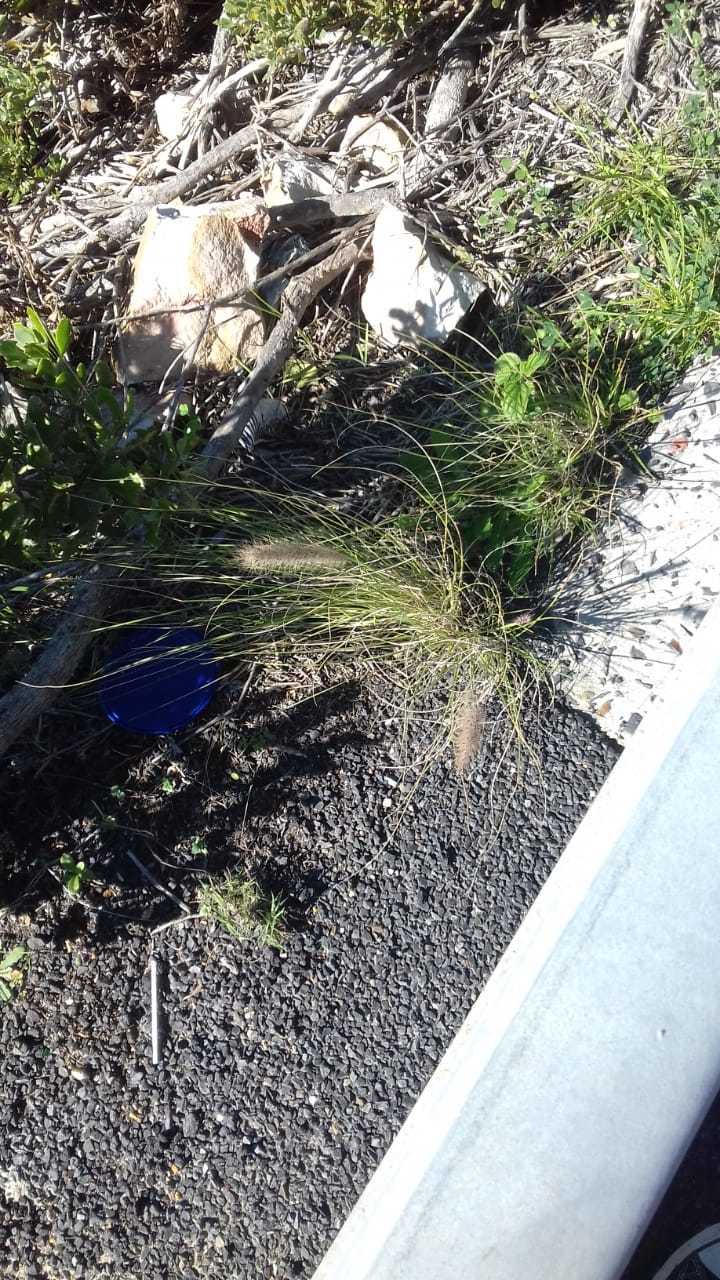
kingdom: Plantae
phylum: Tracheophyta
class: Liliopsida
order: Poales
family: Poaceae
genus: Cenchrus
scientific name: Cenchrus setaceus
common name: Crimson fountaingrass
